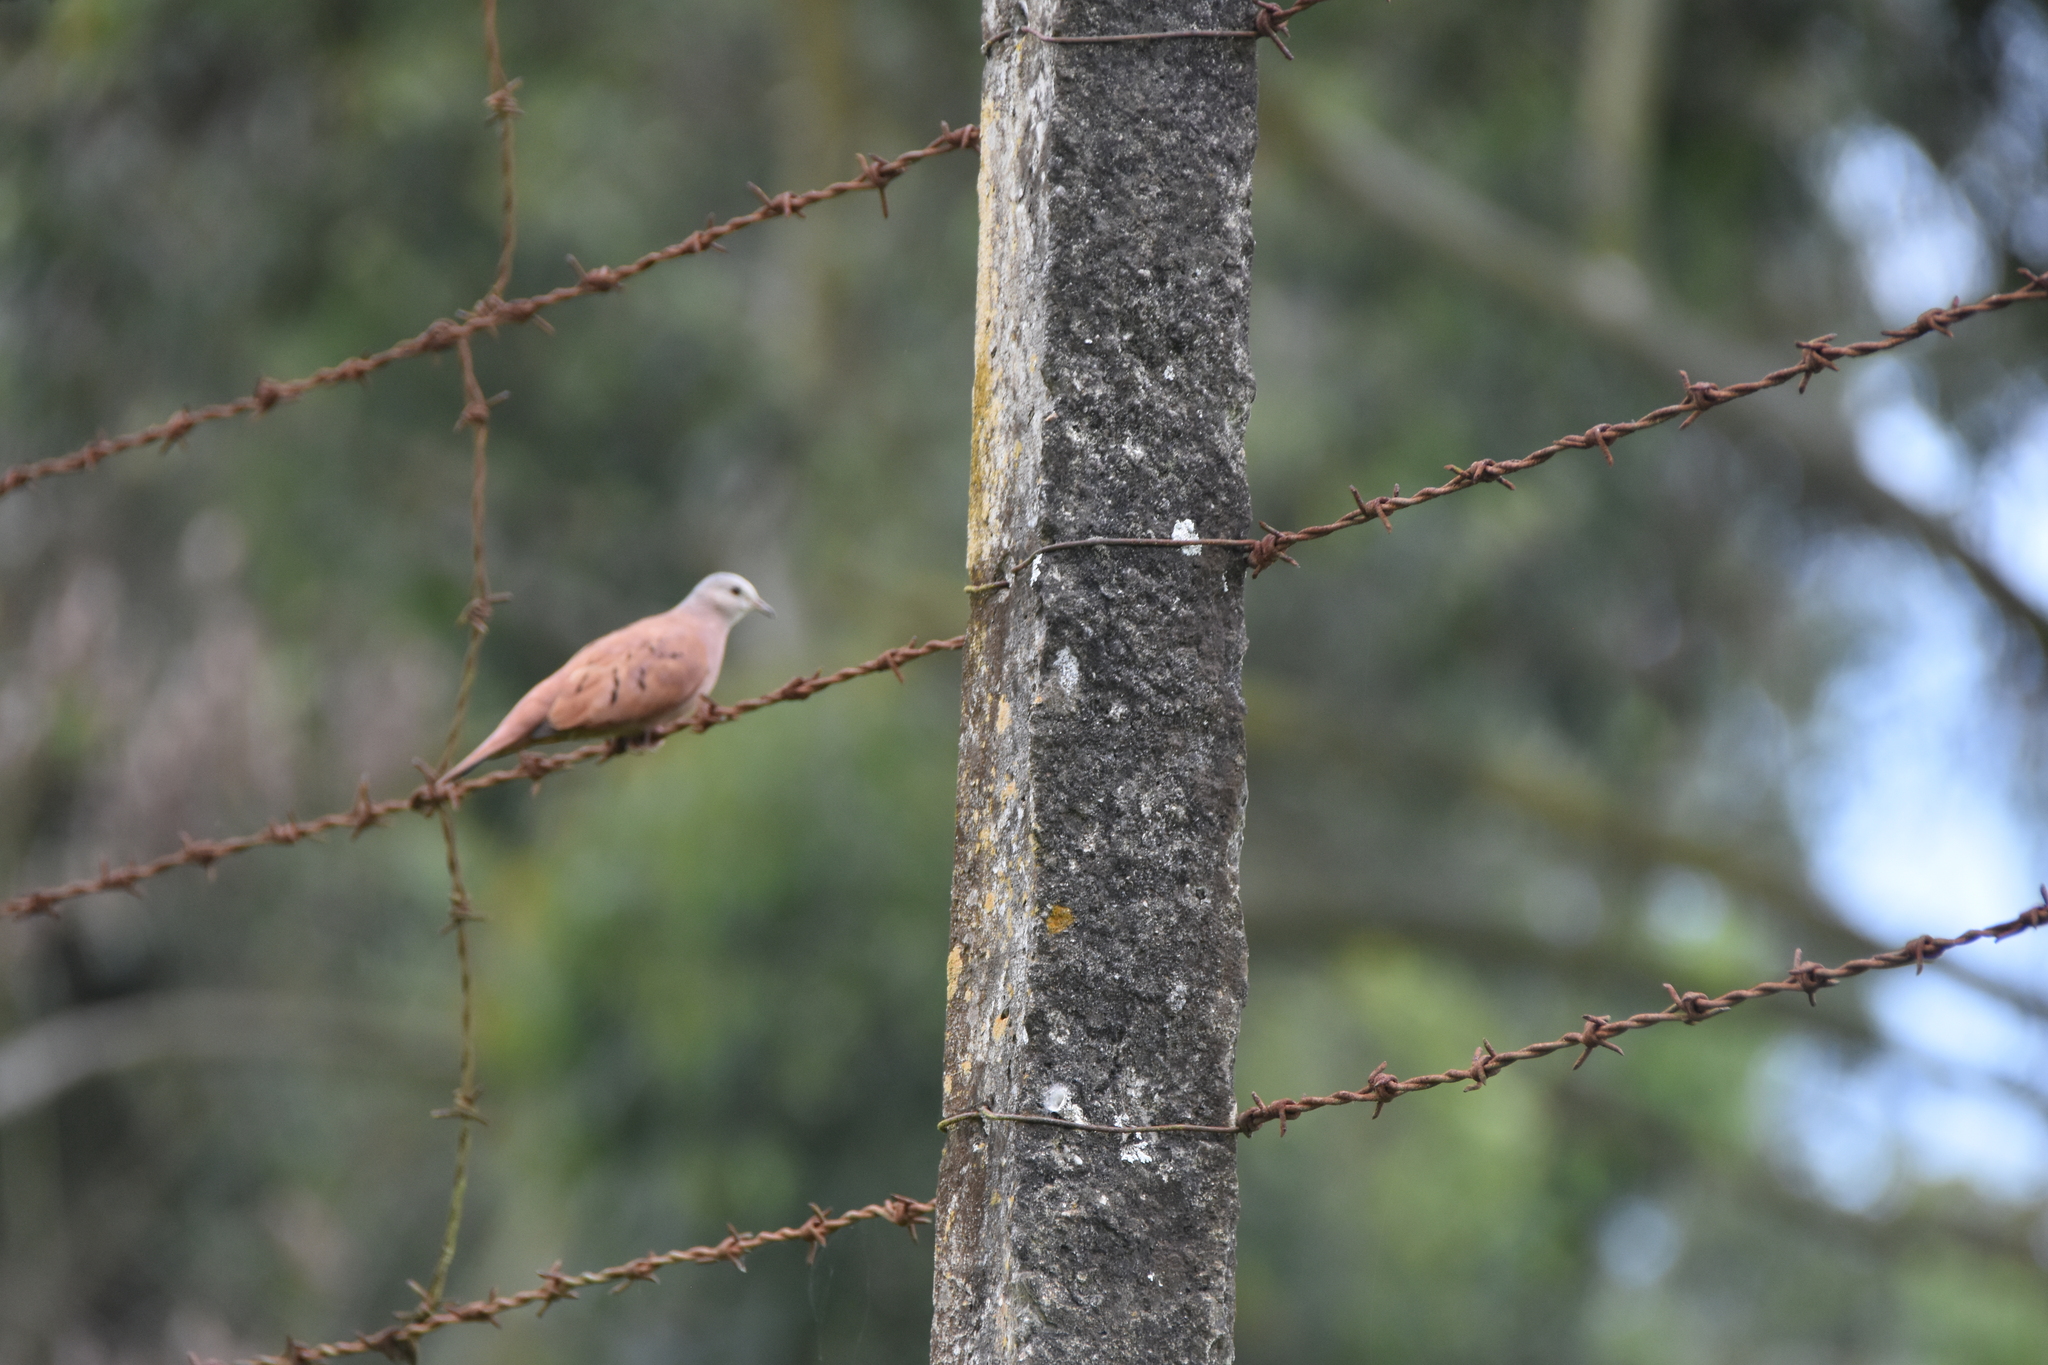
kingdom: Animalia
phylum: Chordata
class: Aves
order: Columbiformes
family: Columbidae
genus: Columbina
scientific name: Columbina talpacoti
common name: Ruddy ground dove
